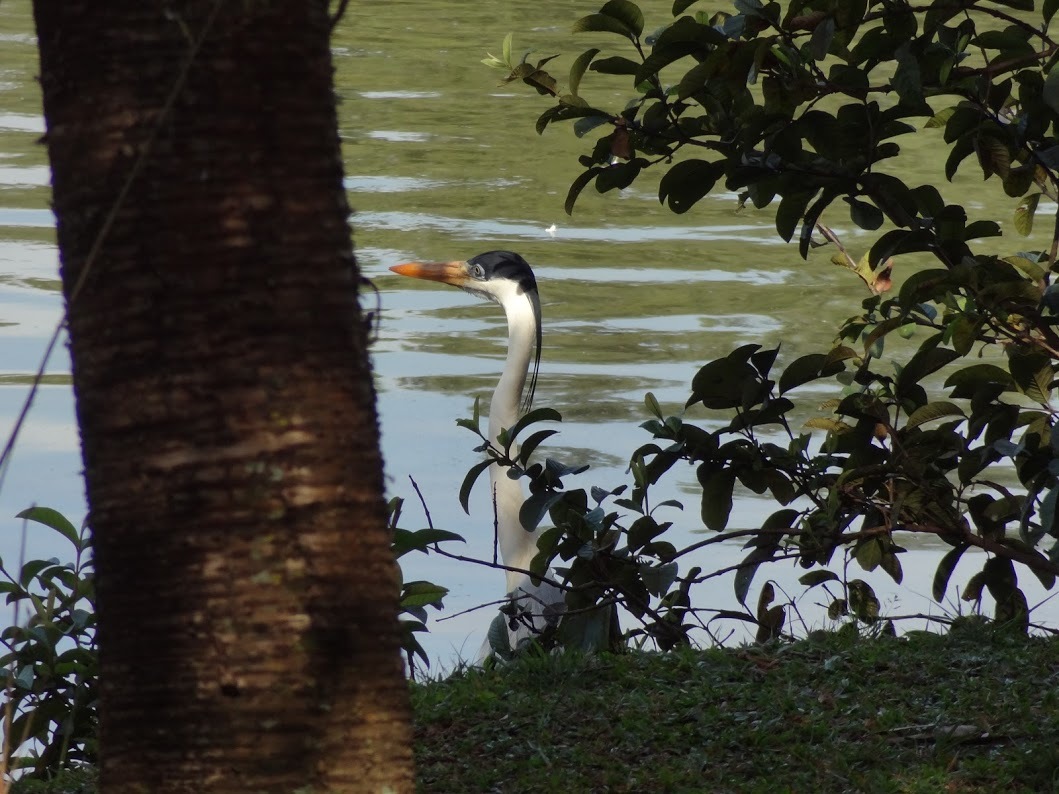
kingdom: Animalia
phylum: Chordata
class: Aves
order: Pelecaniformes
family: Ardeidae
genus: Ardea
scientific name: Ardea cocoi
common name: Cocoi heron
